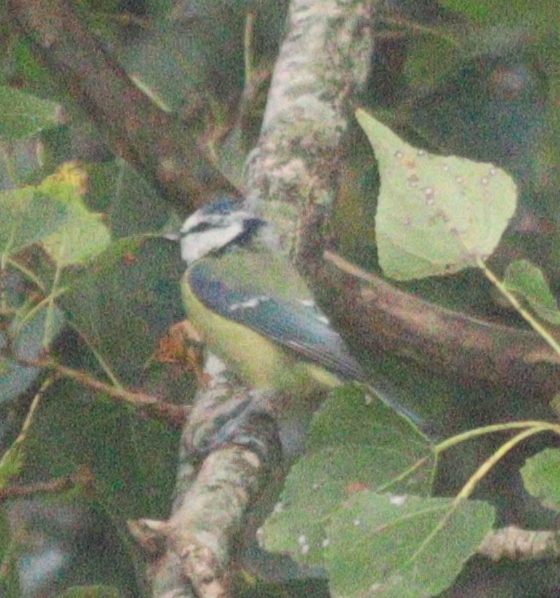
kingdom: Animalia
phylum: Chordata
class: Aves
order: Passeriformes
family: Paridae
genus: Cyanistes
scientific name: Cyanistes caeruleus
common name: Eurasian blue tit
